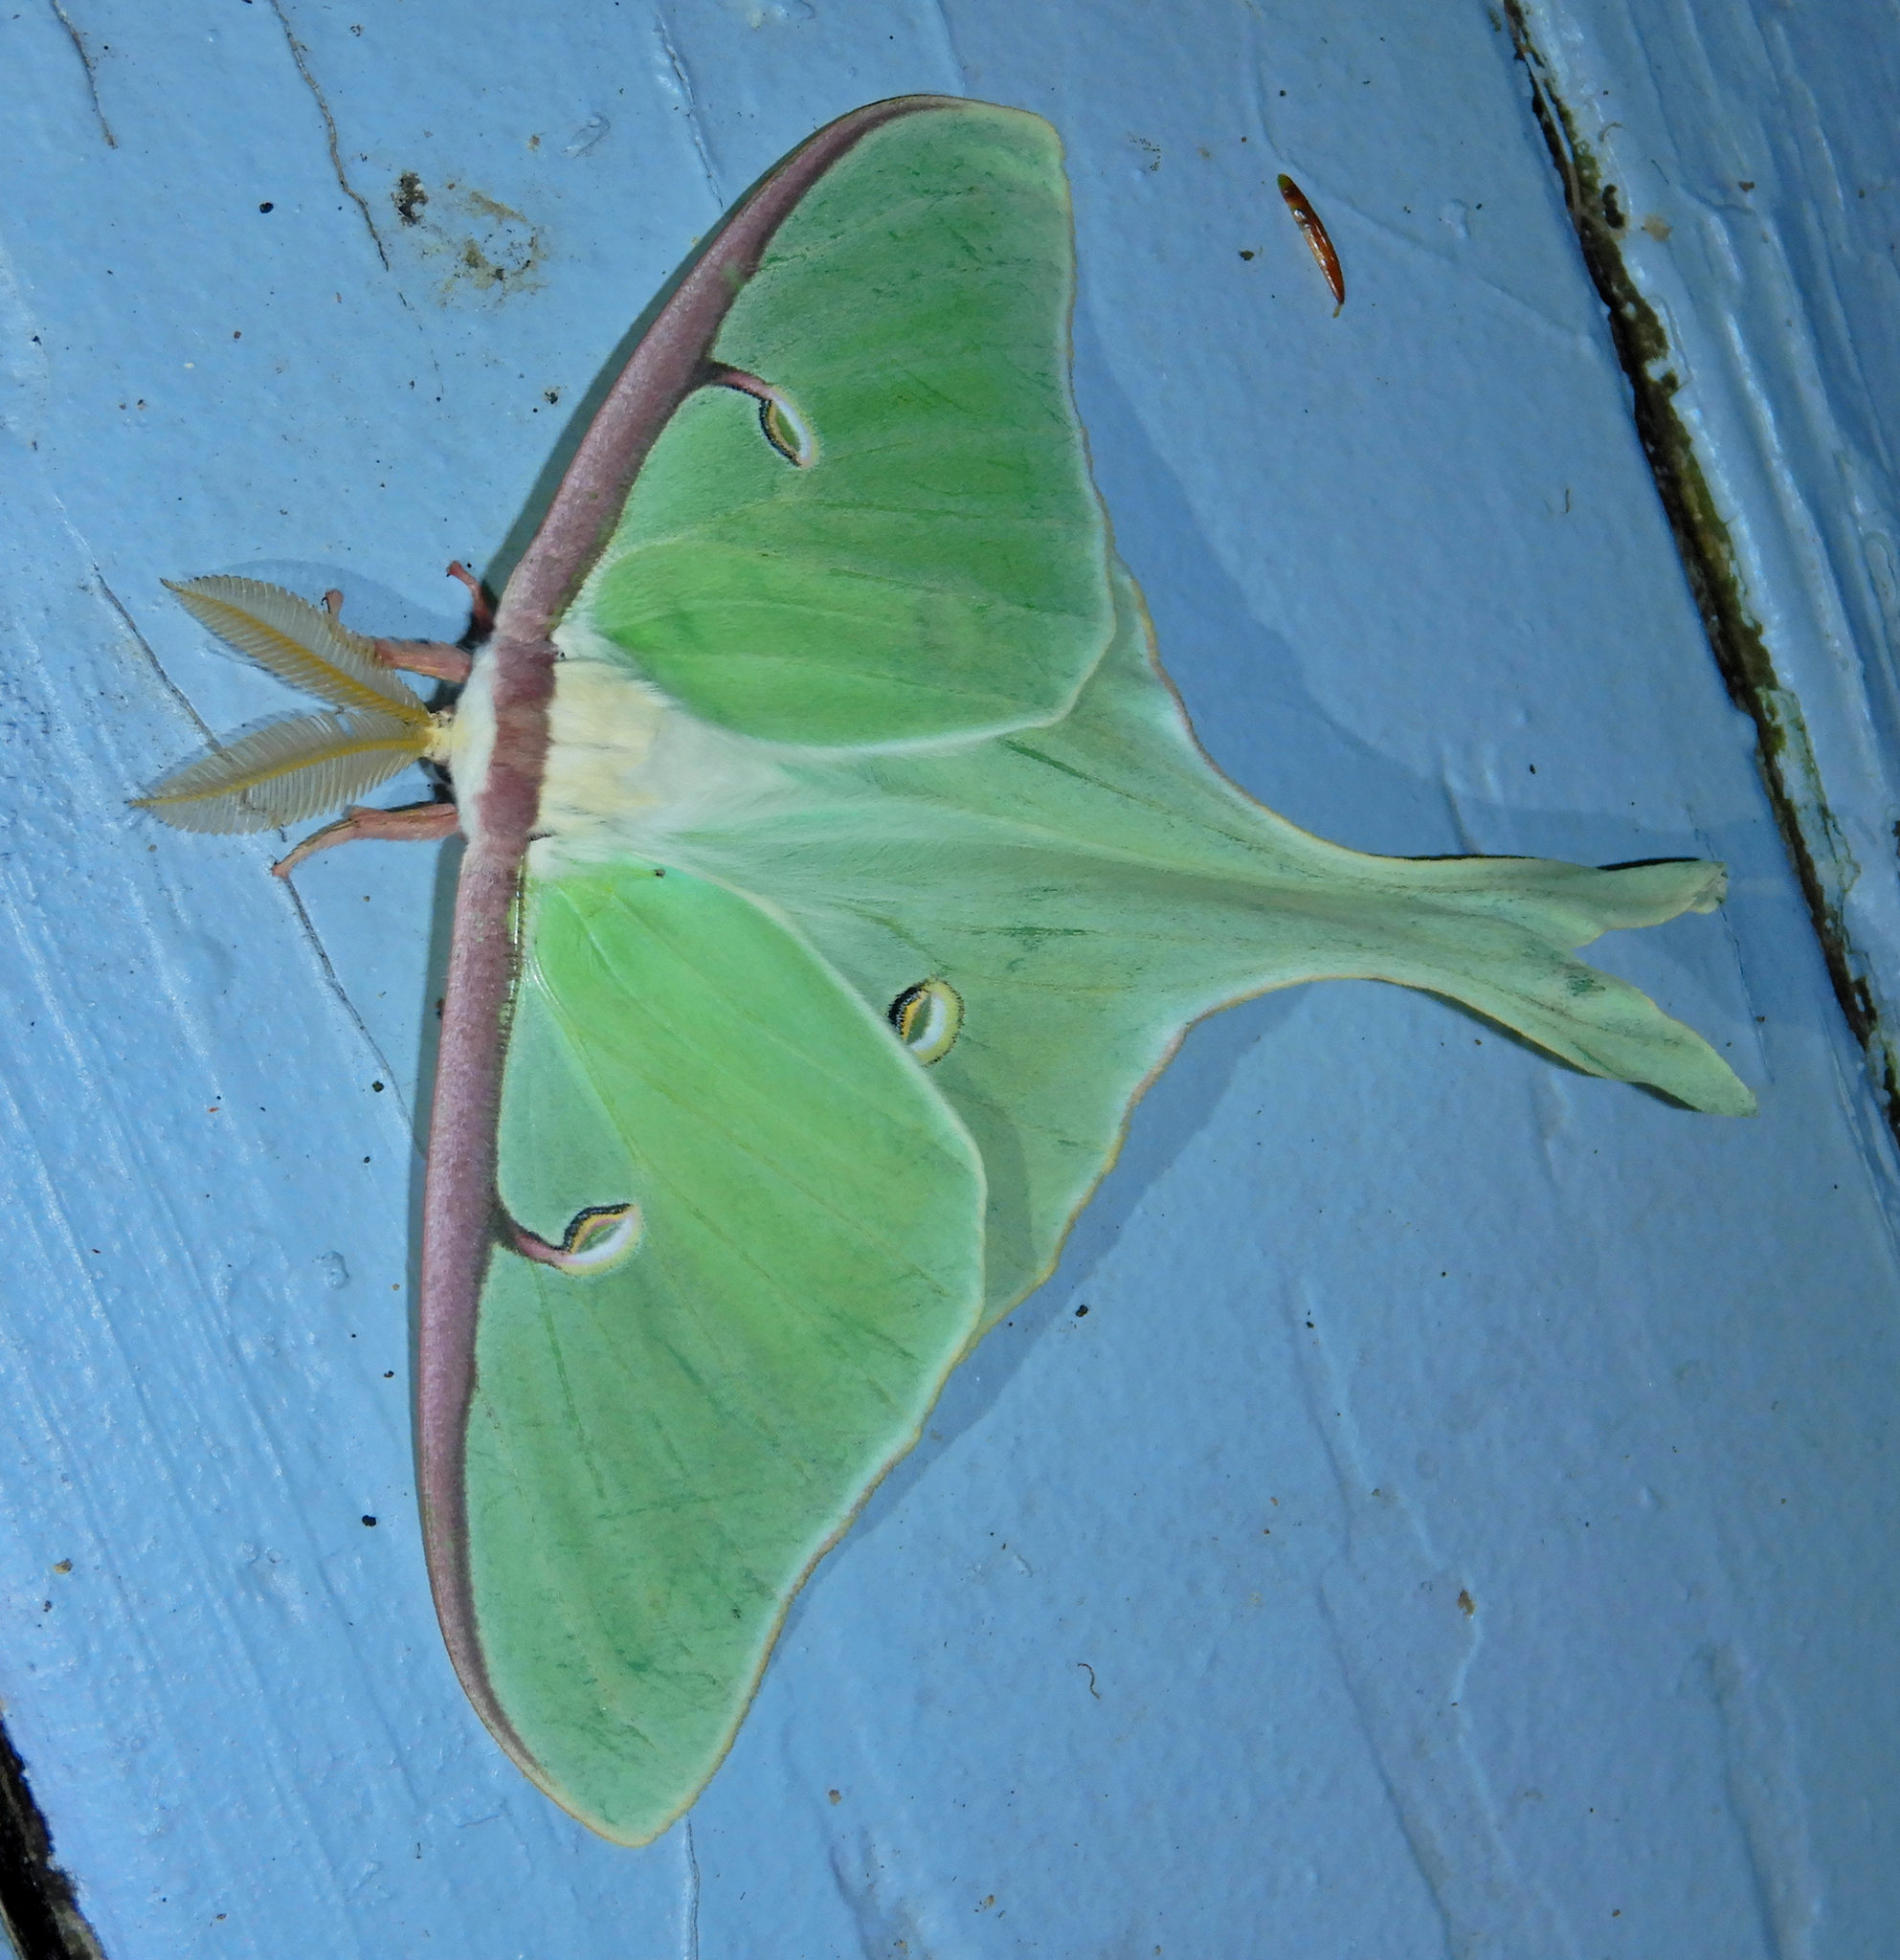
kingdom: Animalia
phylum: Arthropoda
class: Insecta
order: Lepidoptera
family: Saturniidae
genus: Actias
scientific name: Actias luna
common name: Luna moth
